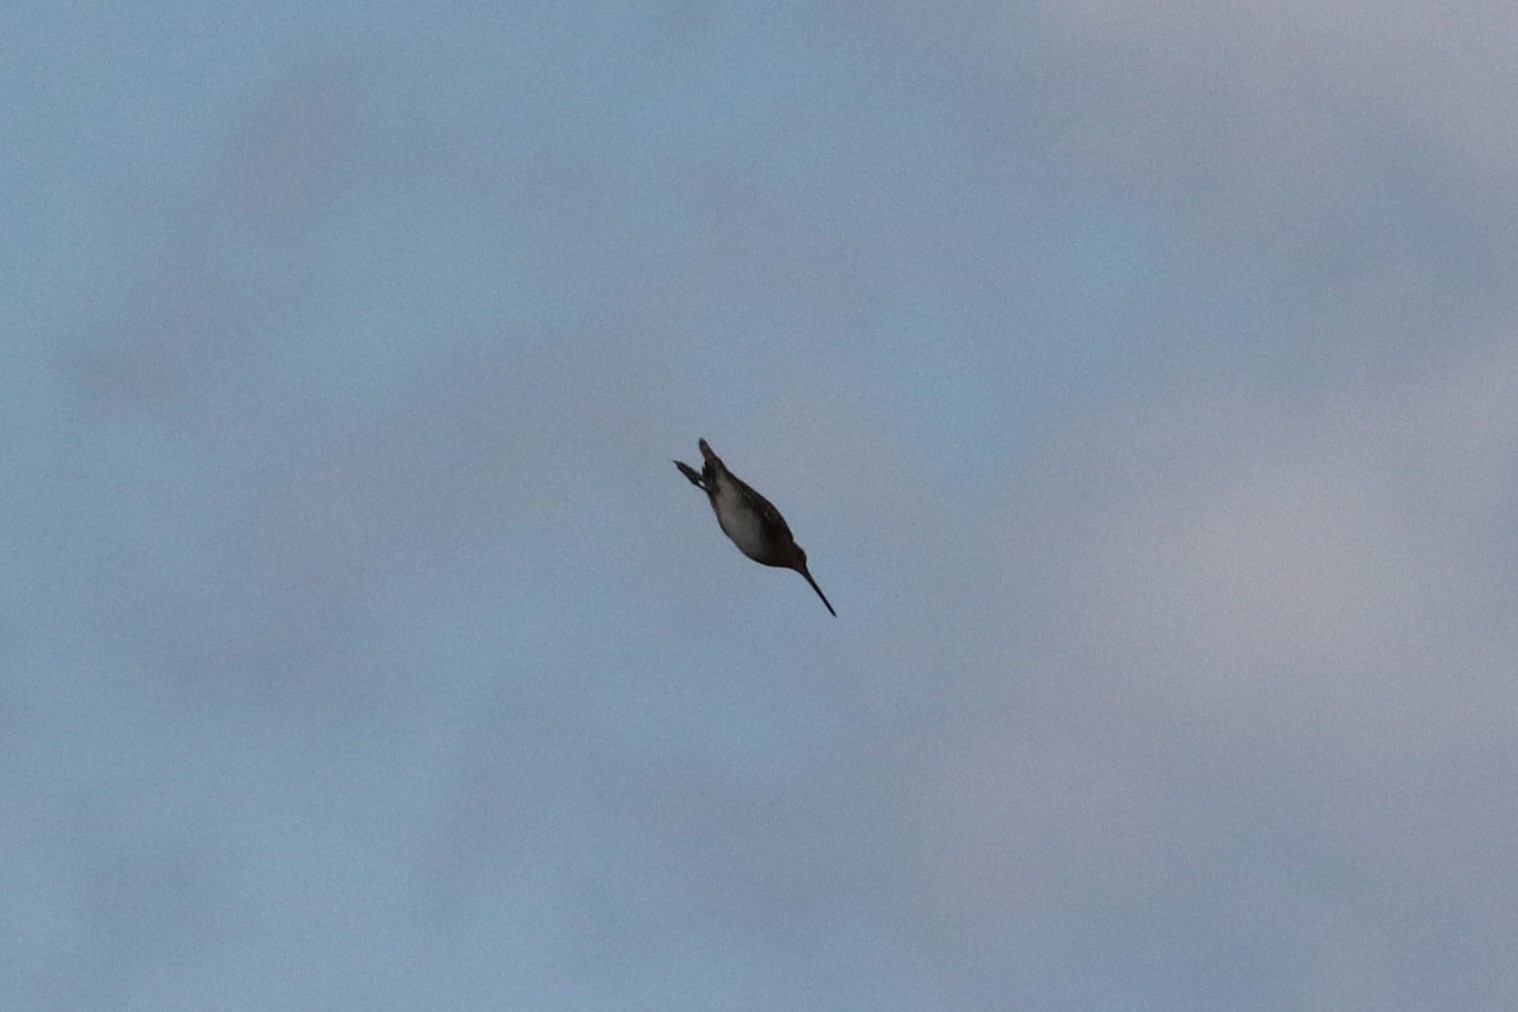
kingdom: Animalia
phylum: Chordata
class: Aves
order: Charadriiformes
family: Scolopacidae
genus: Gallinago
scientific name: Gallinago gallinago
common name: Common snipe
